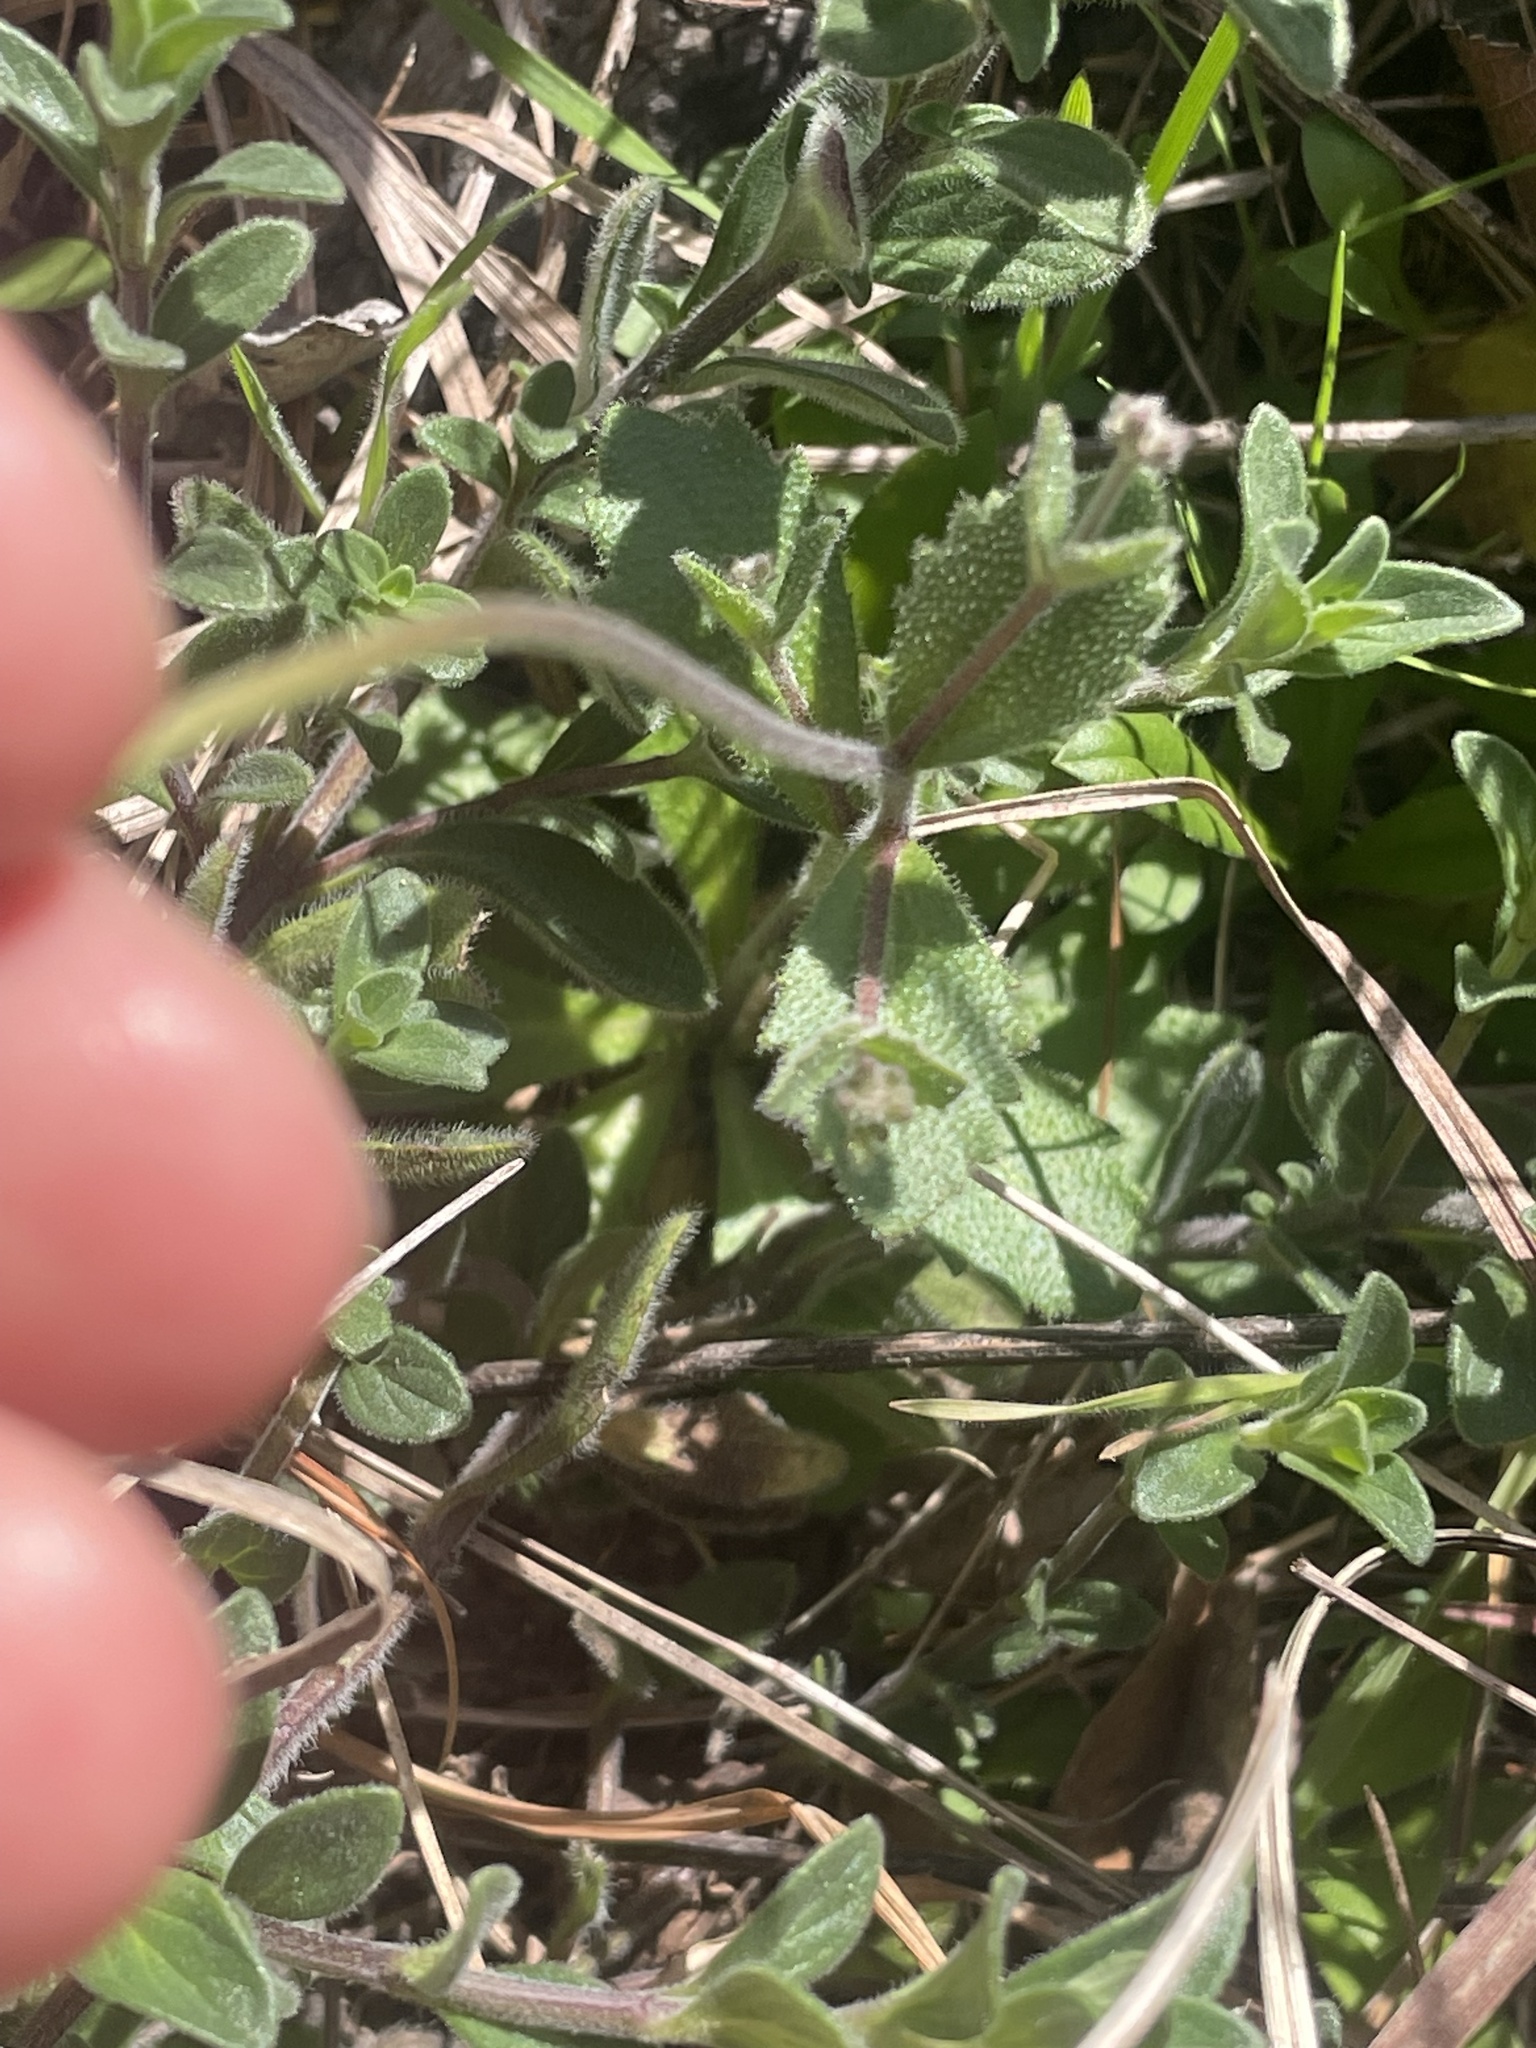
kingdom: Plantae
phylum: Tracheophyta
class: Magnoliopsida
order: Brassicales
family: Brassicaceae
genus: Tomostima
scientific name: Tomostima cuneifolia
